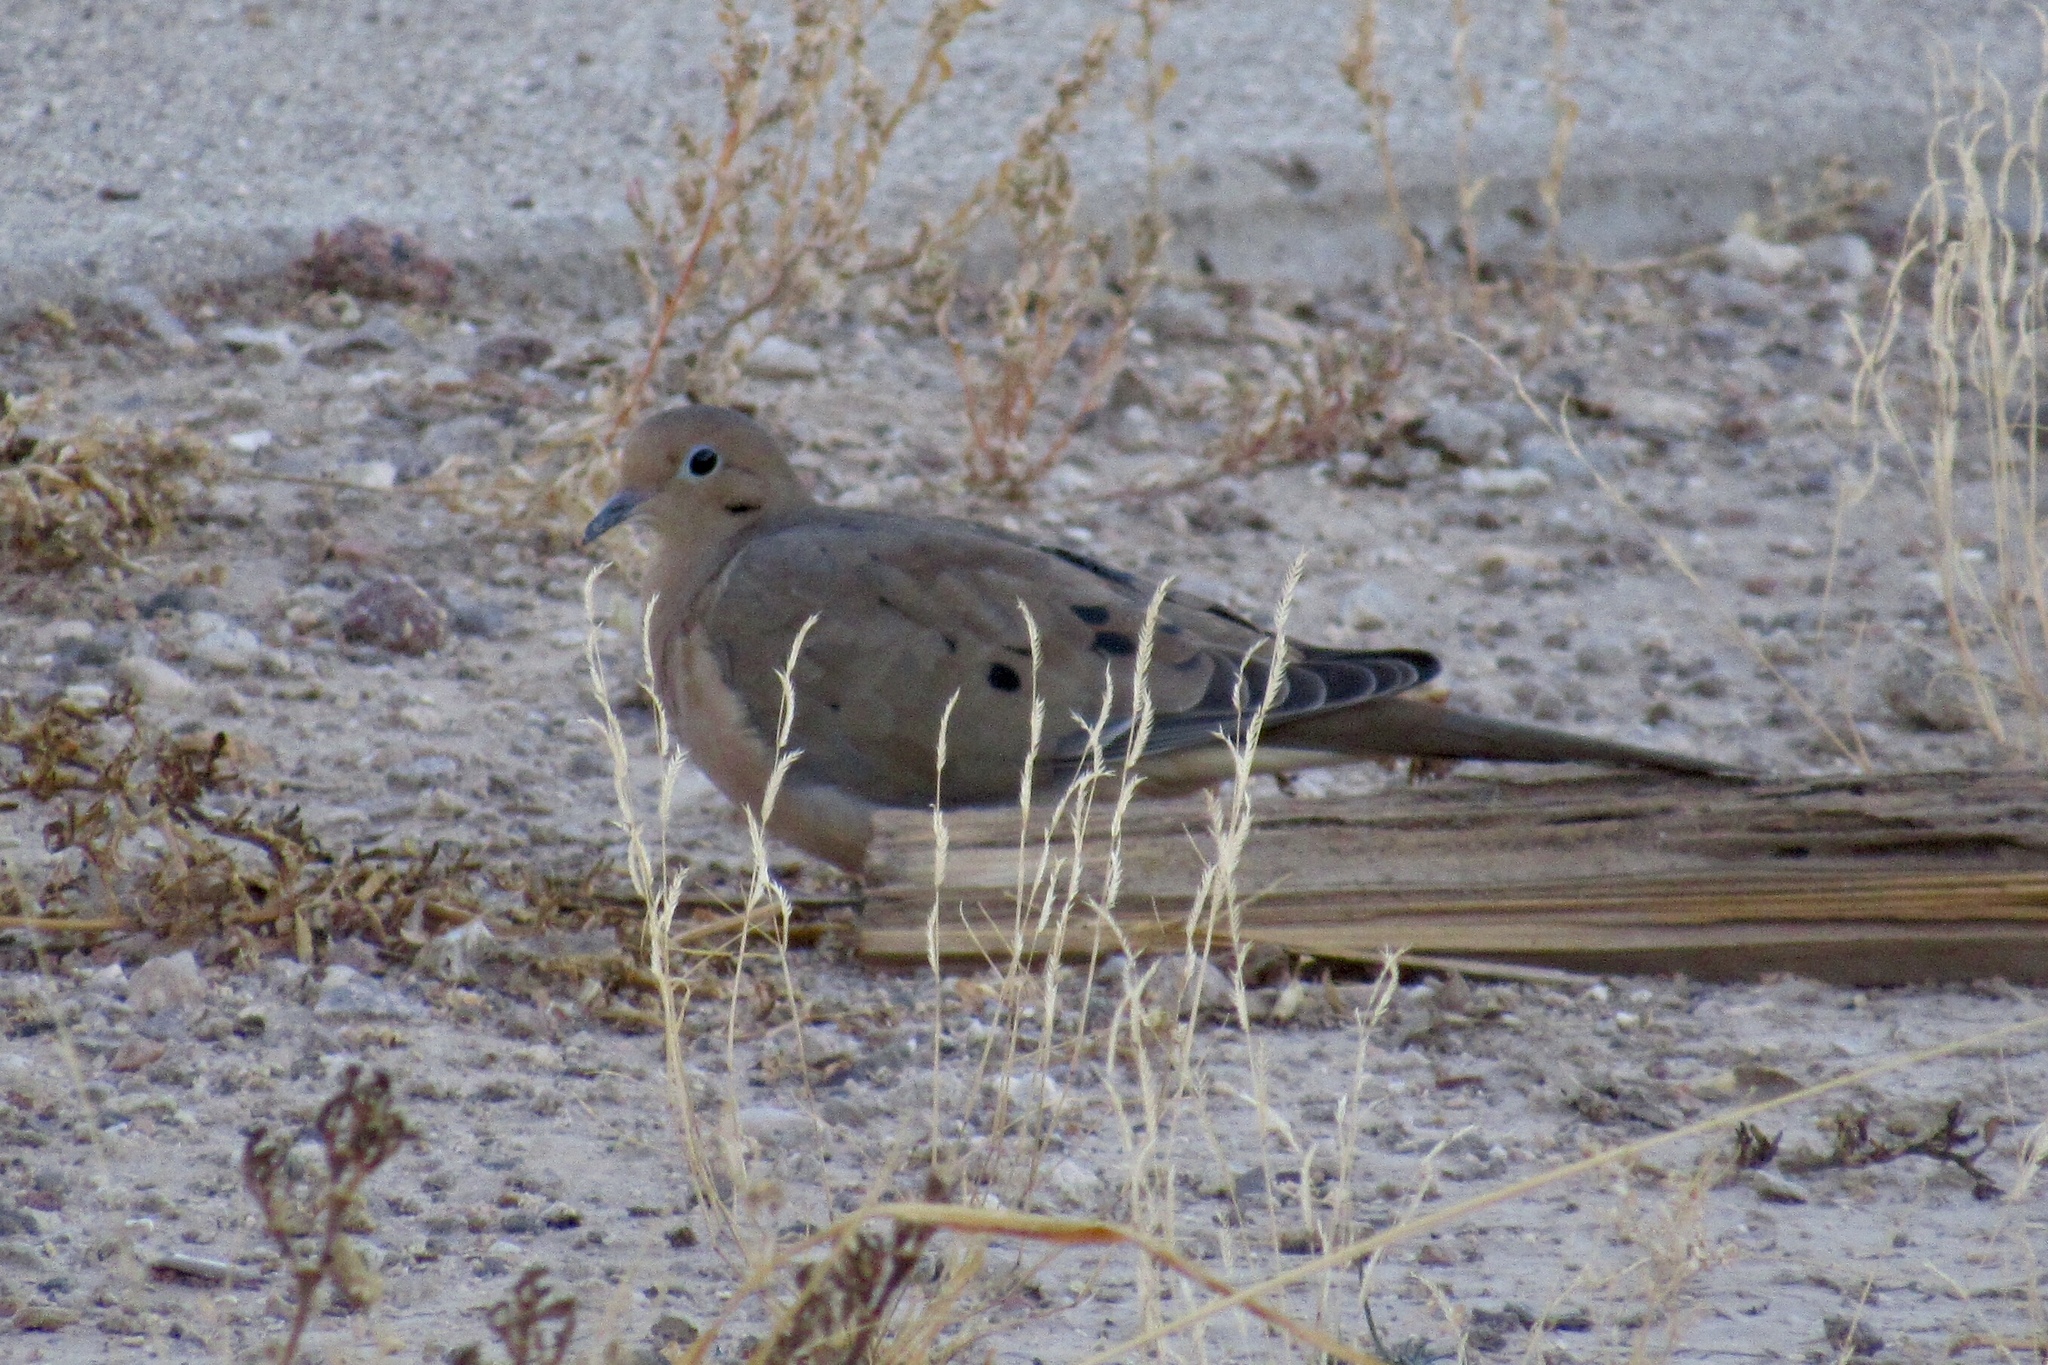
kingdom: Animalia
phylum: Chordata
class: Aves
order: Columbiformes
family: Columbidae
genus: Zenaida
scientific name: Zenaida macroura
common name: Mourning dove
